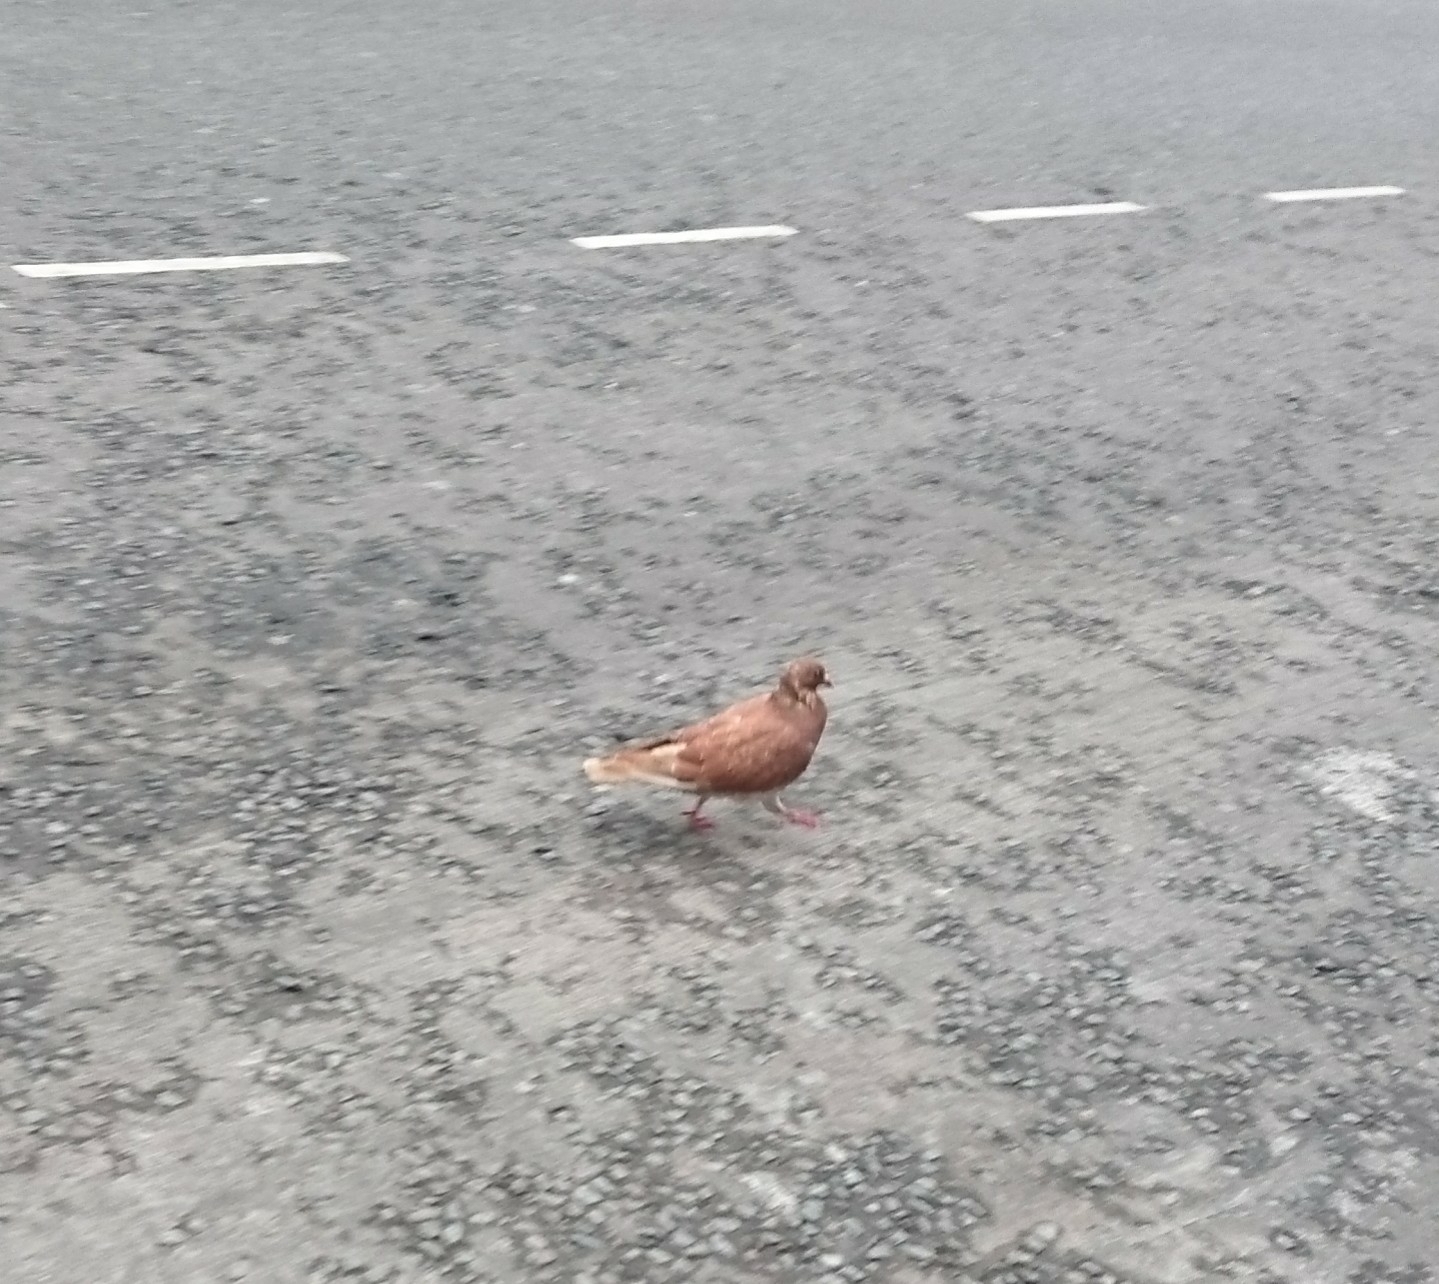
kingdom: Animalia
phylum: Chordata
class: Aves
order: Columbiformes
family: Columbidae
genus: Columba
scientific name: Columba livia
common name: Rock pigeon
